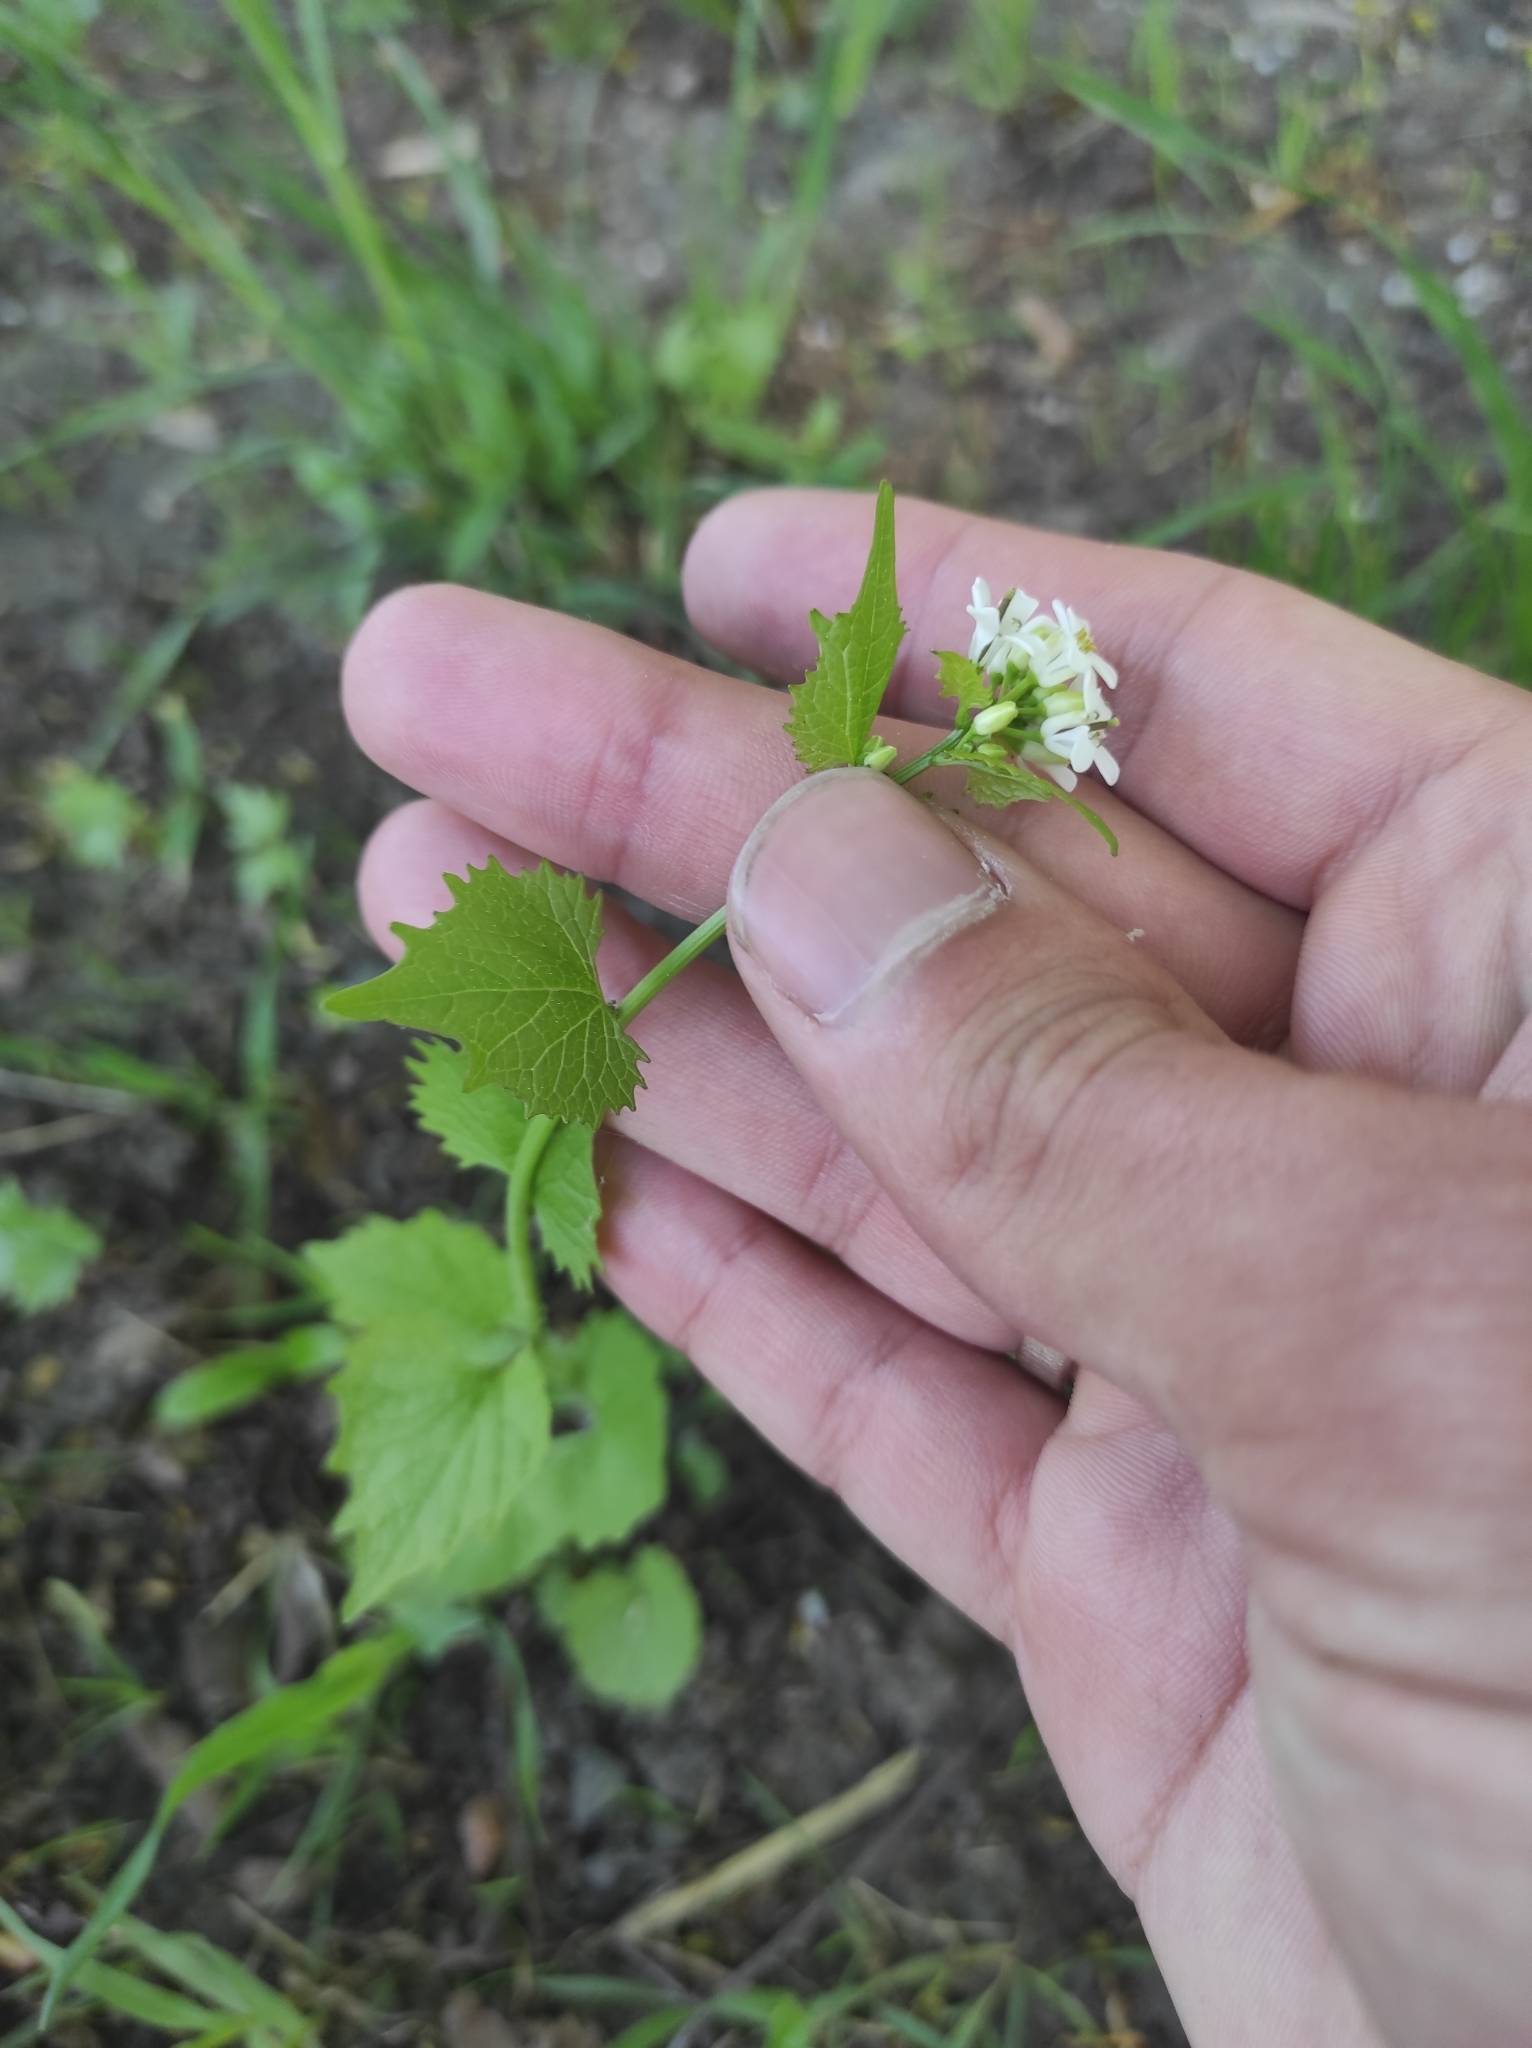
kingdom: Plantae
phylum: Tracheophyta
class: Magnoliopsida
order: Brassicales
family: Brassicaceae
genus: Alliaria
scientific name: Alliaria petiolata
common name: Garlic mustard
